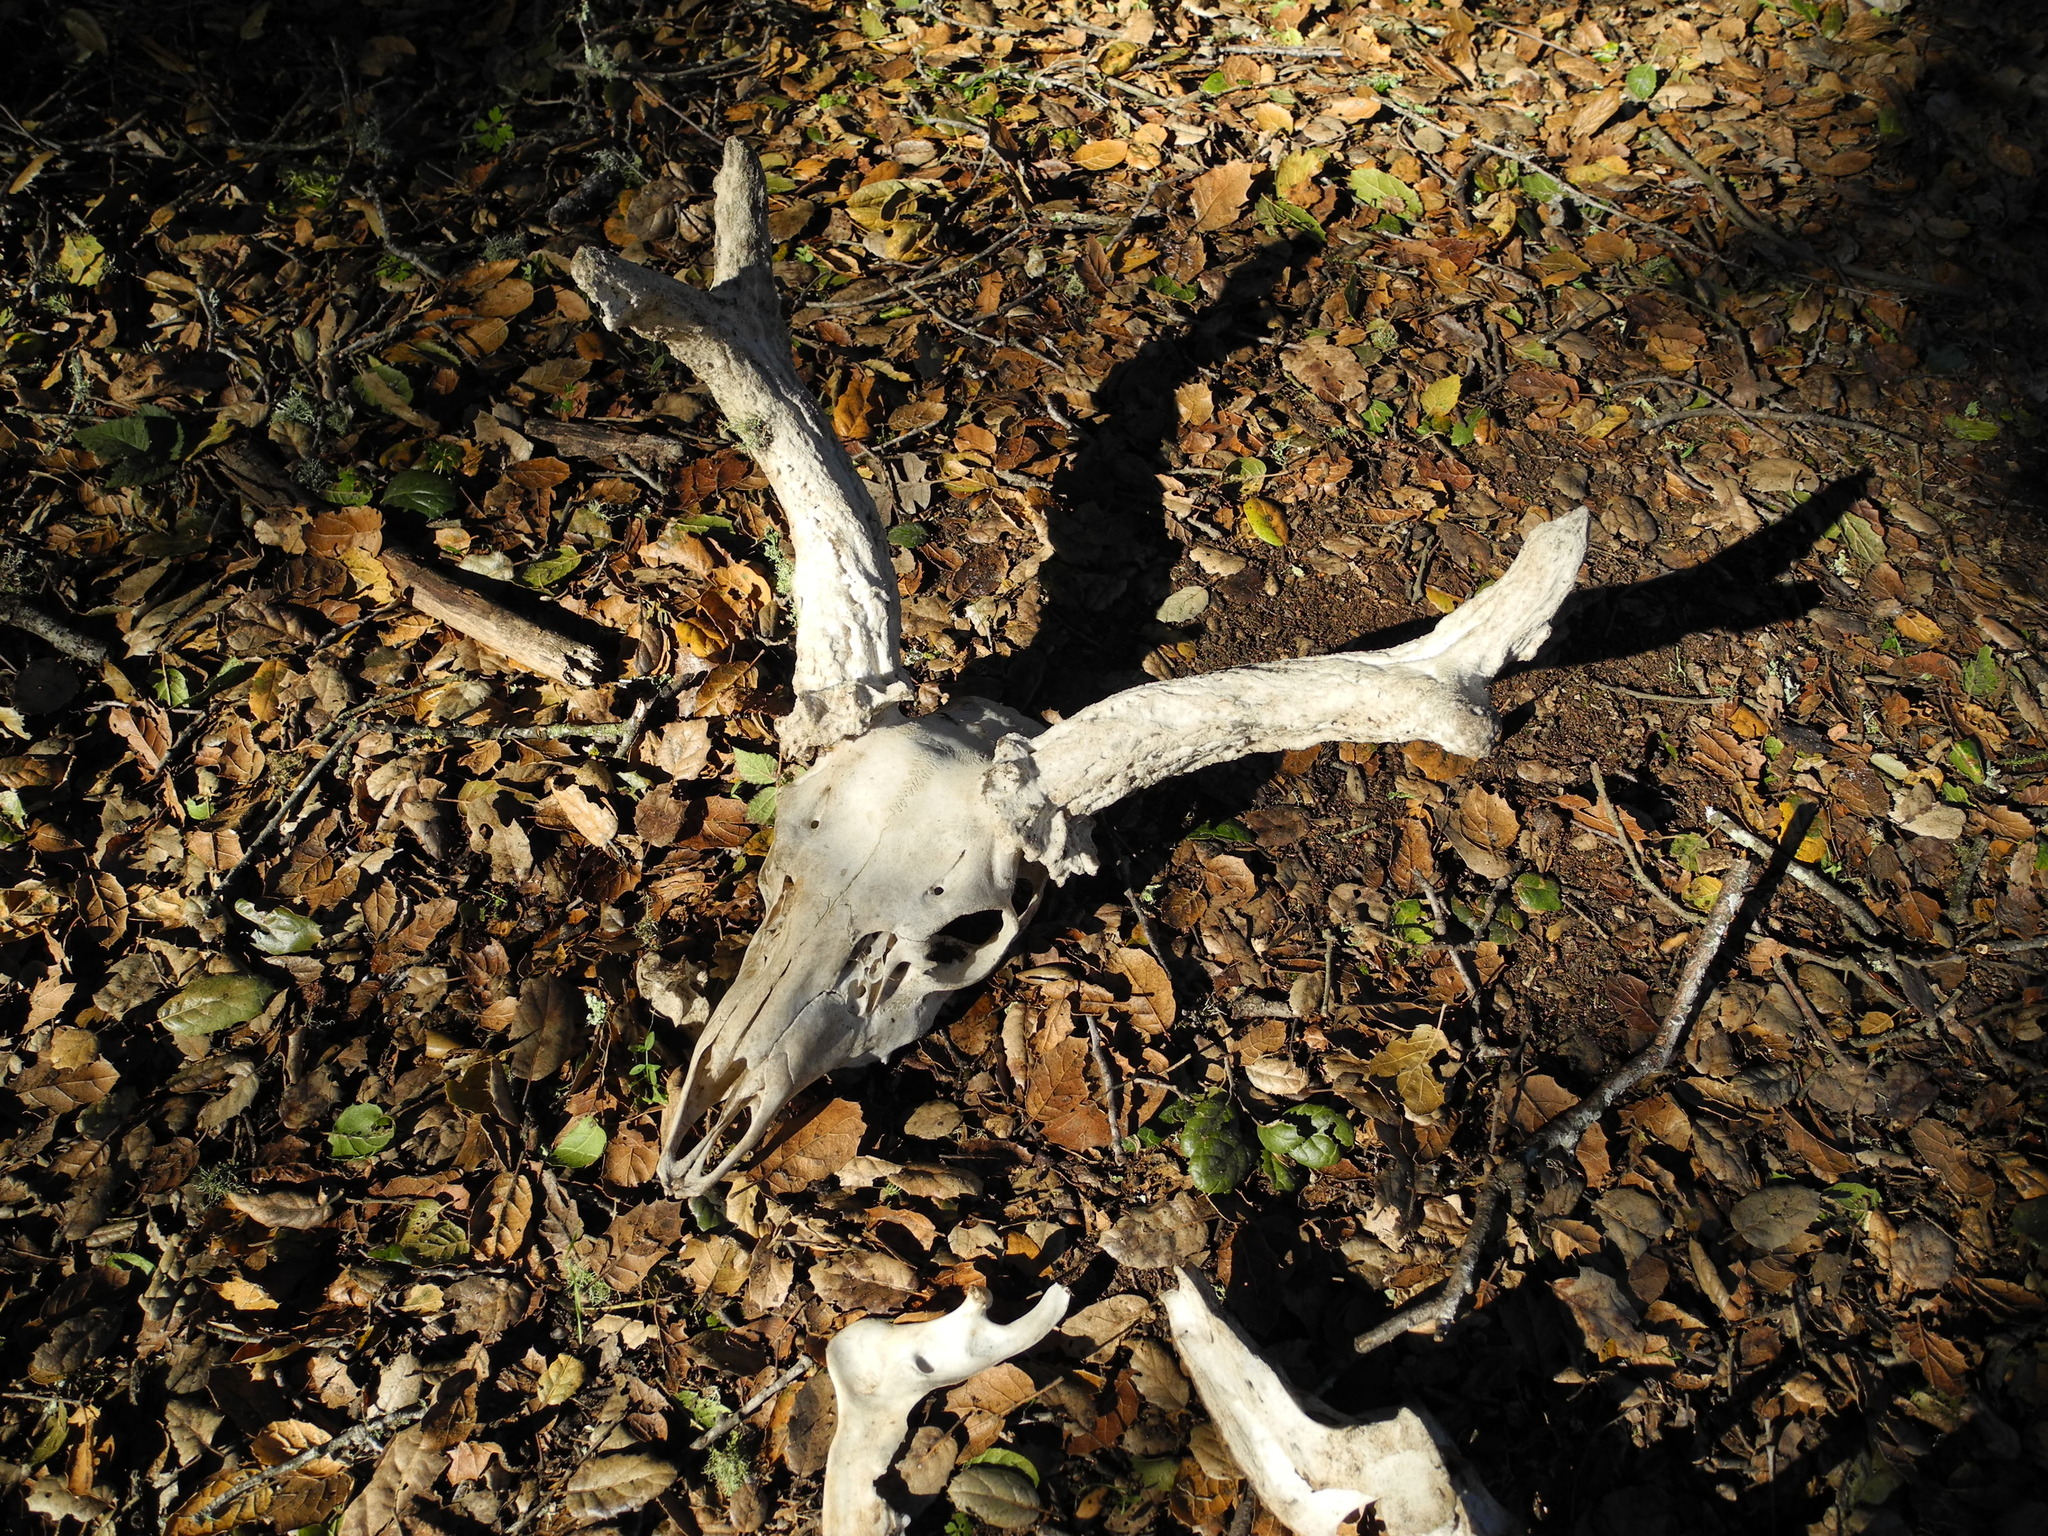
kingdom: Animalia
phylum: Chordata
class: Mammalia
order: Artiodactyla
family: Cervidae
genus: Odocoileus
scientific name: Odocoileus hemionus
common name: Mule deer
